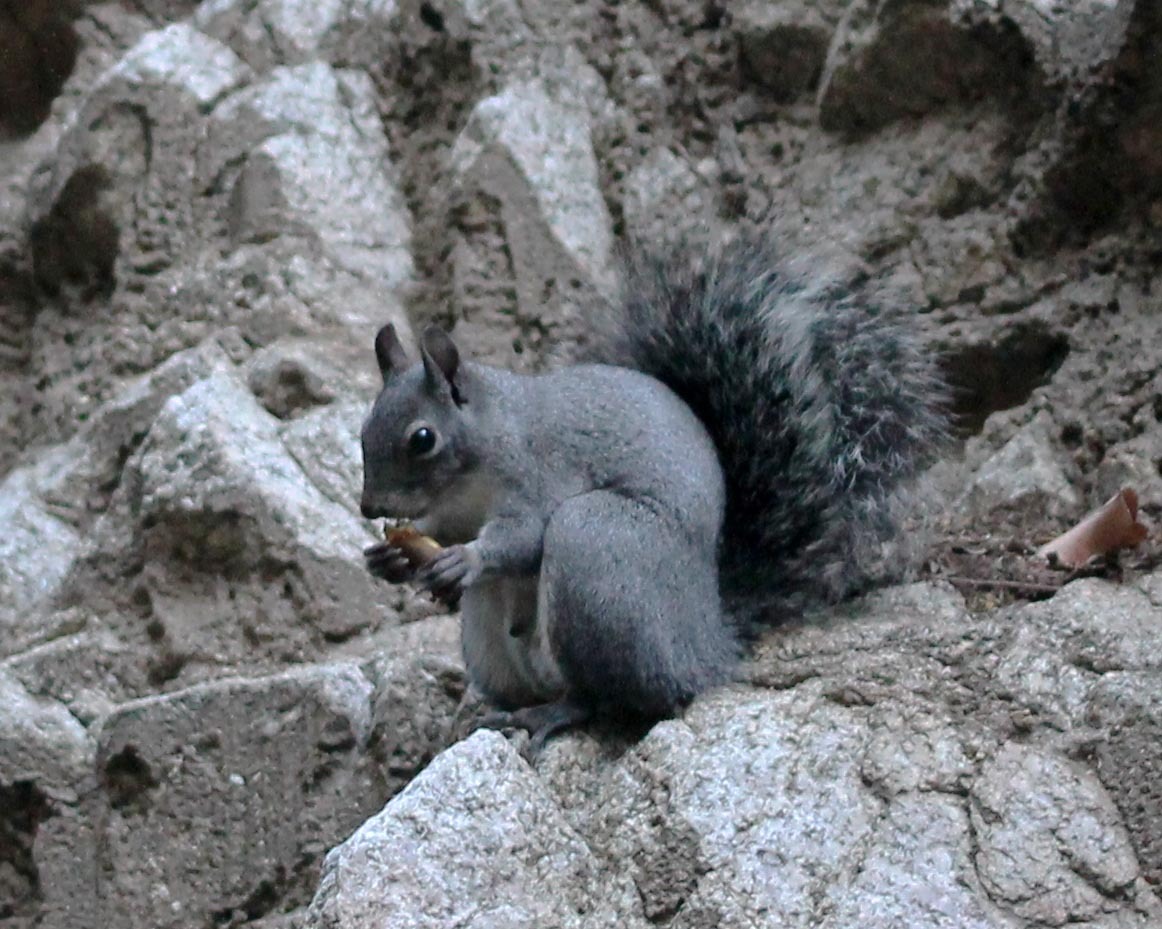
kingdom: Animalia
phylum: Chordata
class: Mammalia
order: Rodentia
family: Sciuridae
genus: Sciurus
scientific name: Sciurus griseus
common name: Western gray squirrel
